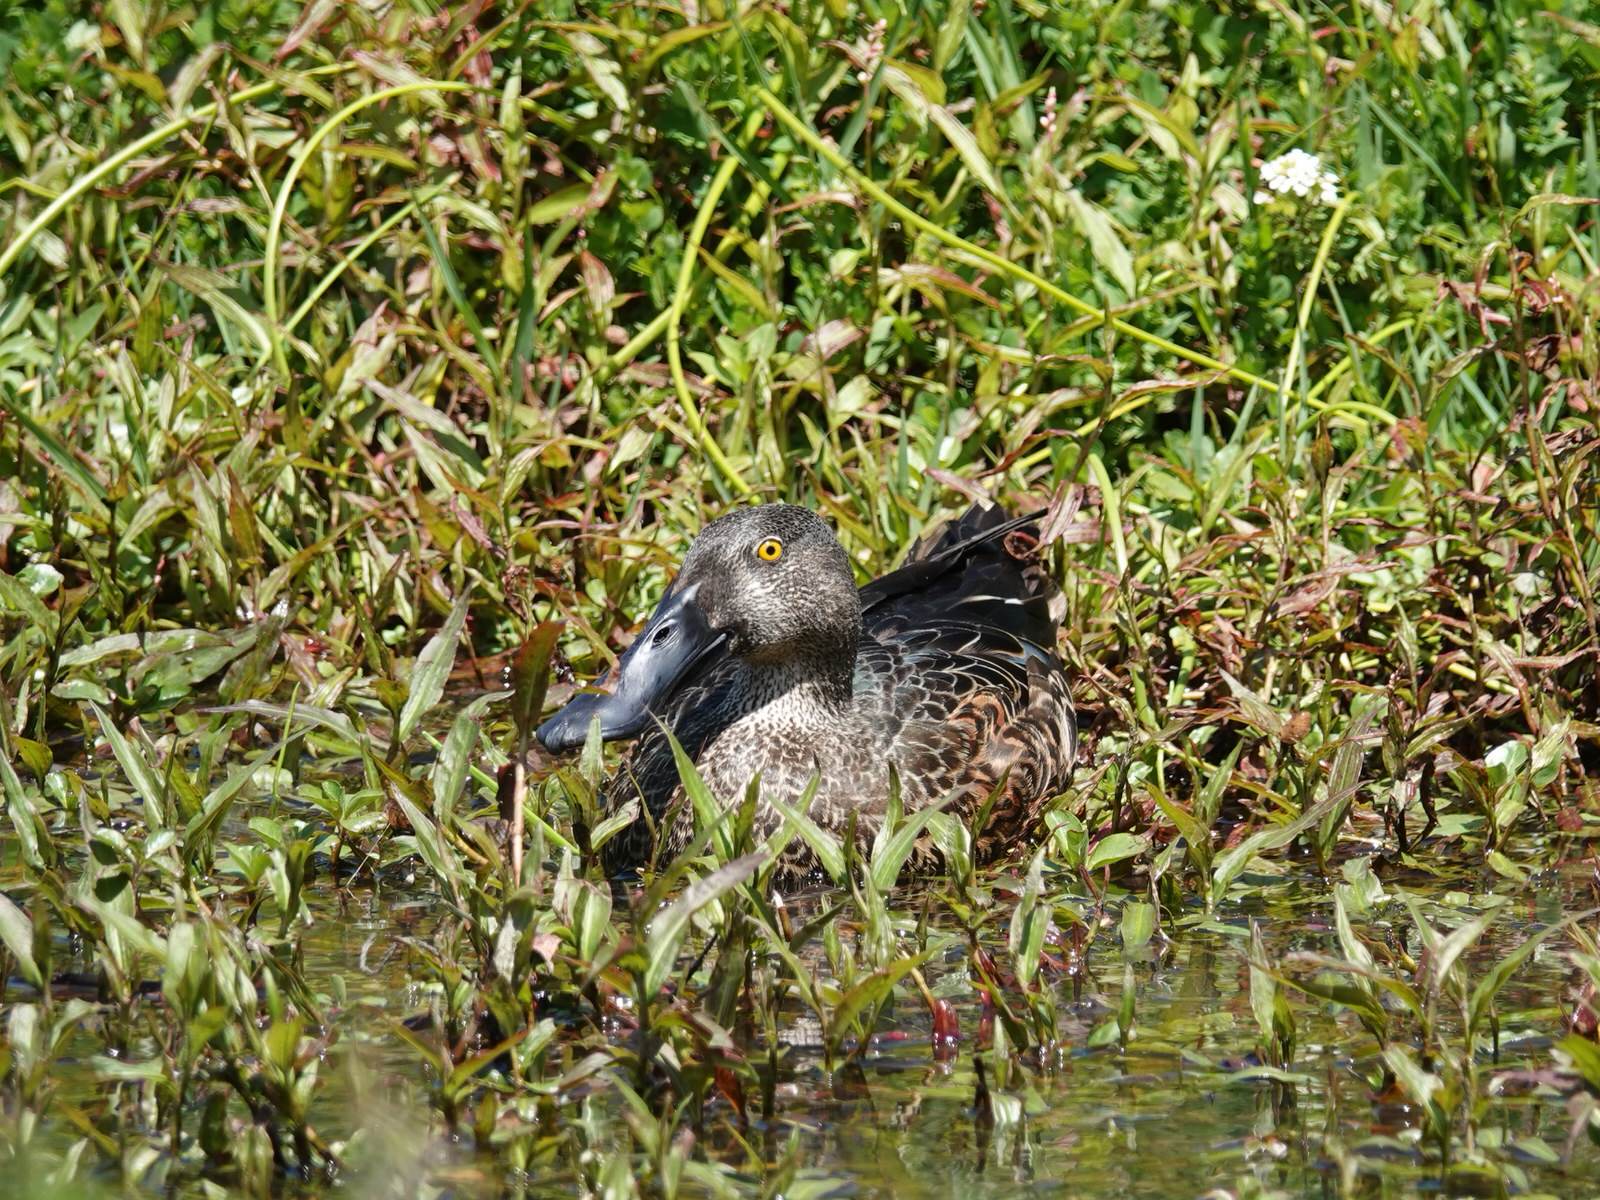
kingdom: Animalia
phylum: Chordata
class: Aves
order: Anseriformes
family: Anatidae
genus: Spatula
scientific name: Spatula rhynchotis
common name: Australian shoveler
